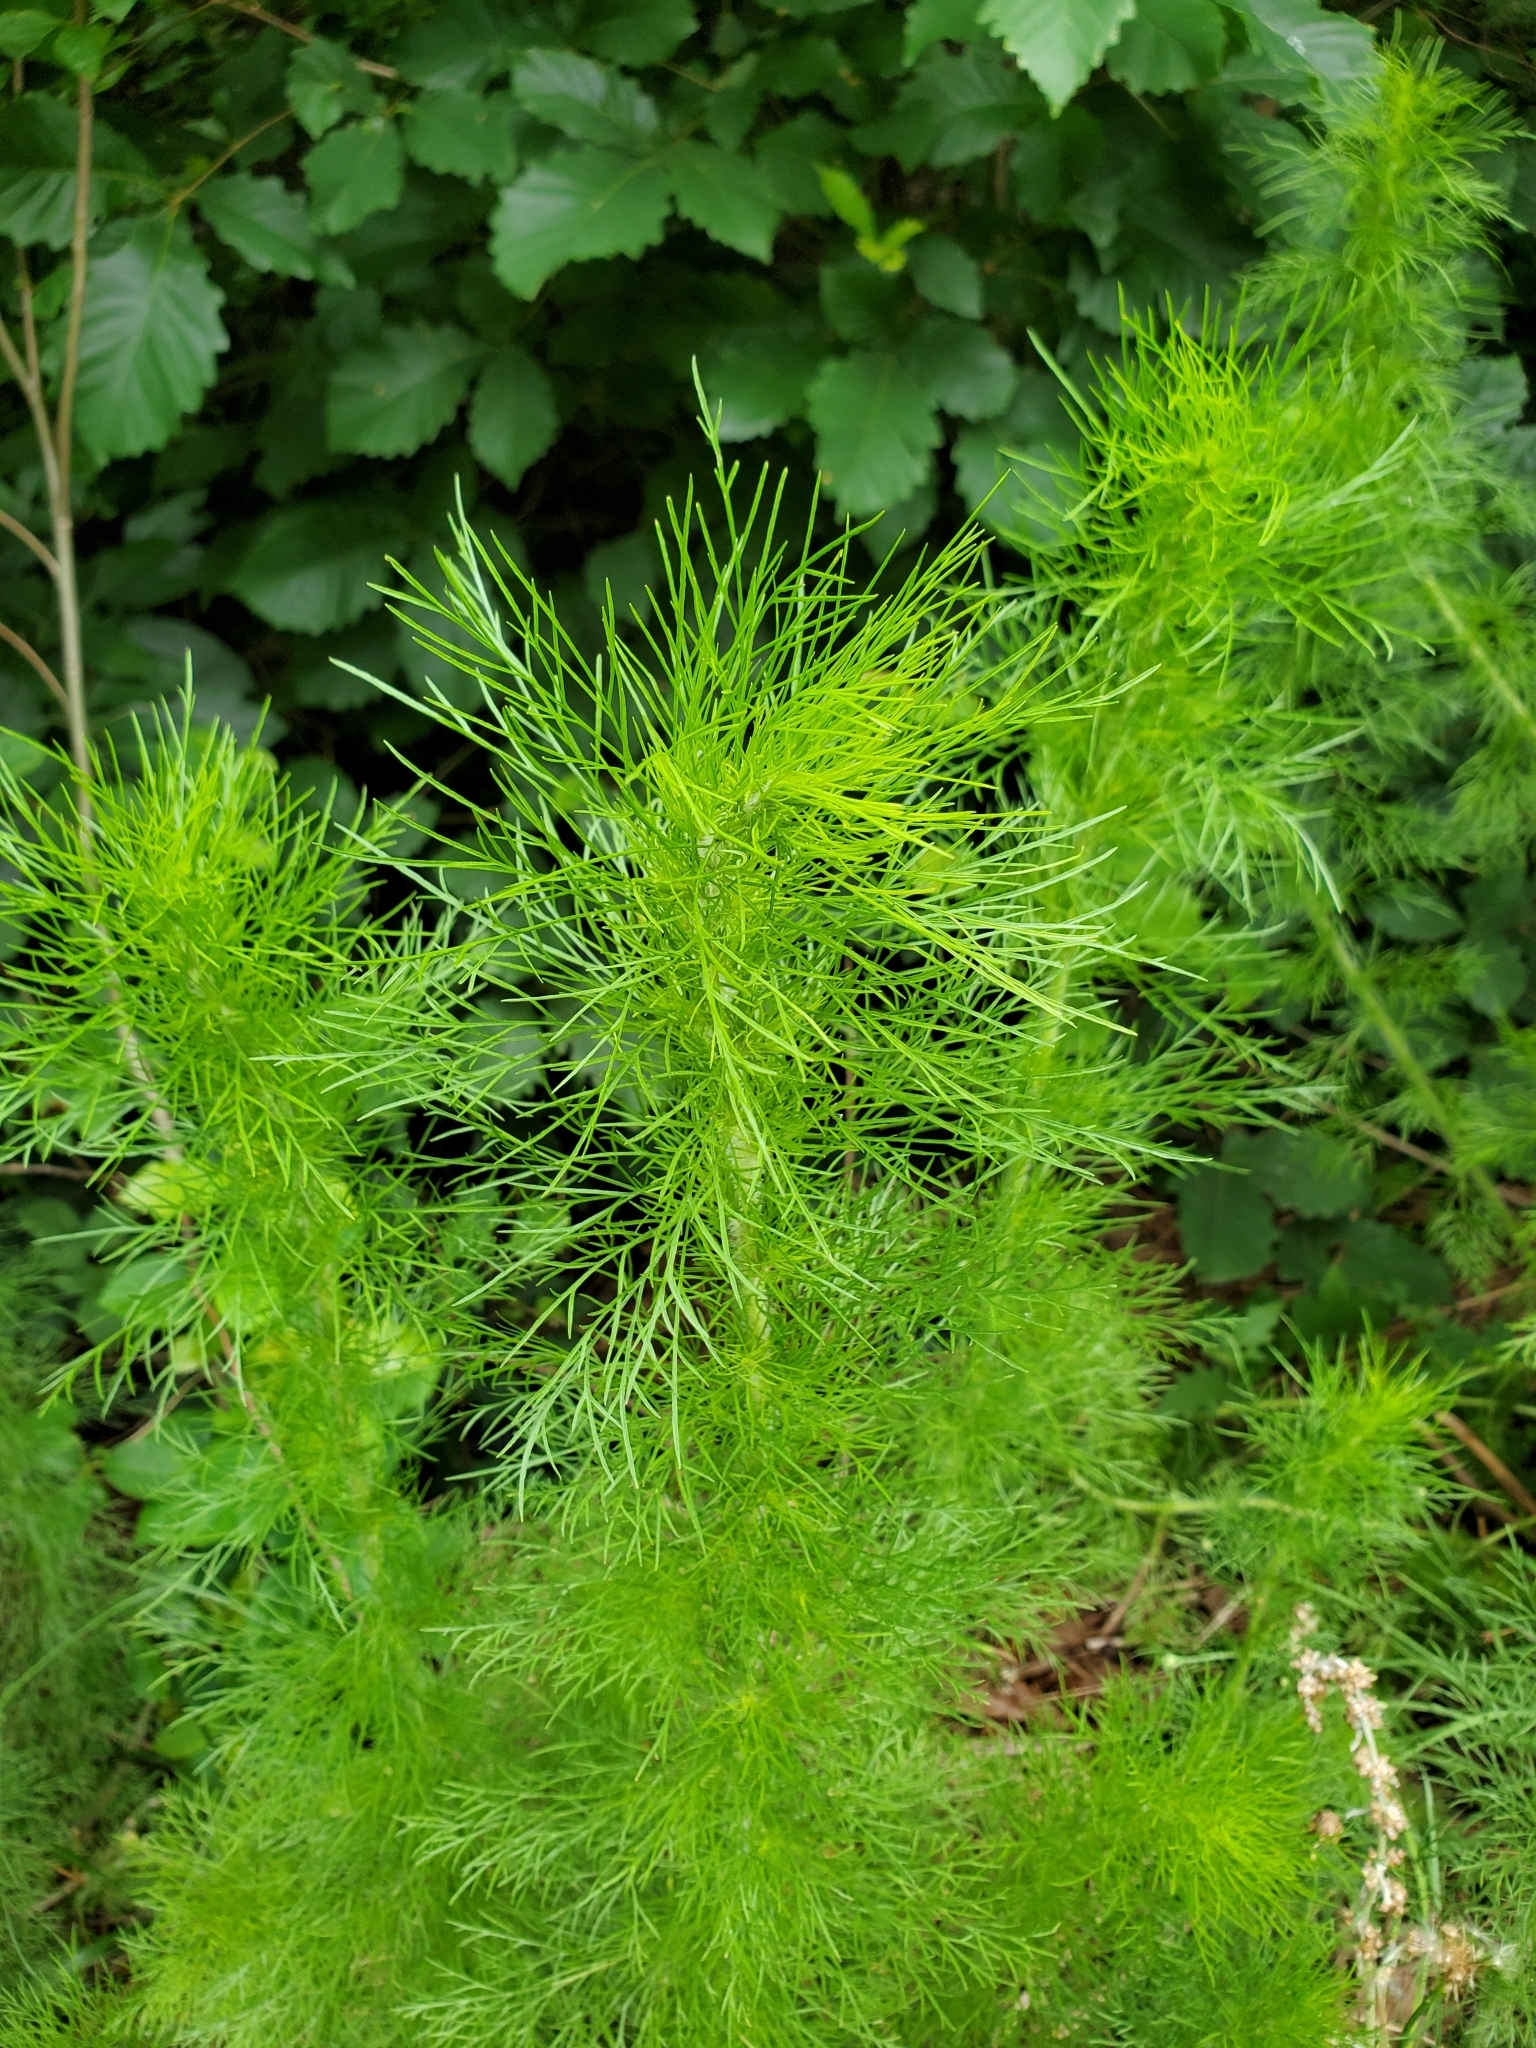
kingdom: Plantae
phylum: Tracheophyta
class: Magnoliopsida
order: Asterales
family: Asteraceae
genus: Eupatorium
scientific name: Eupatorium capillifolium
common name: Dog-fennel
